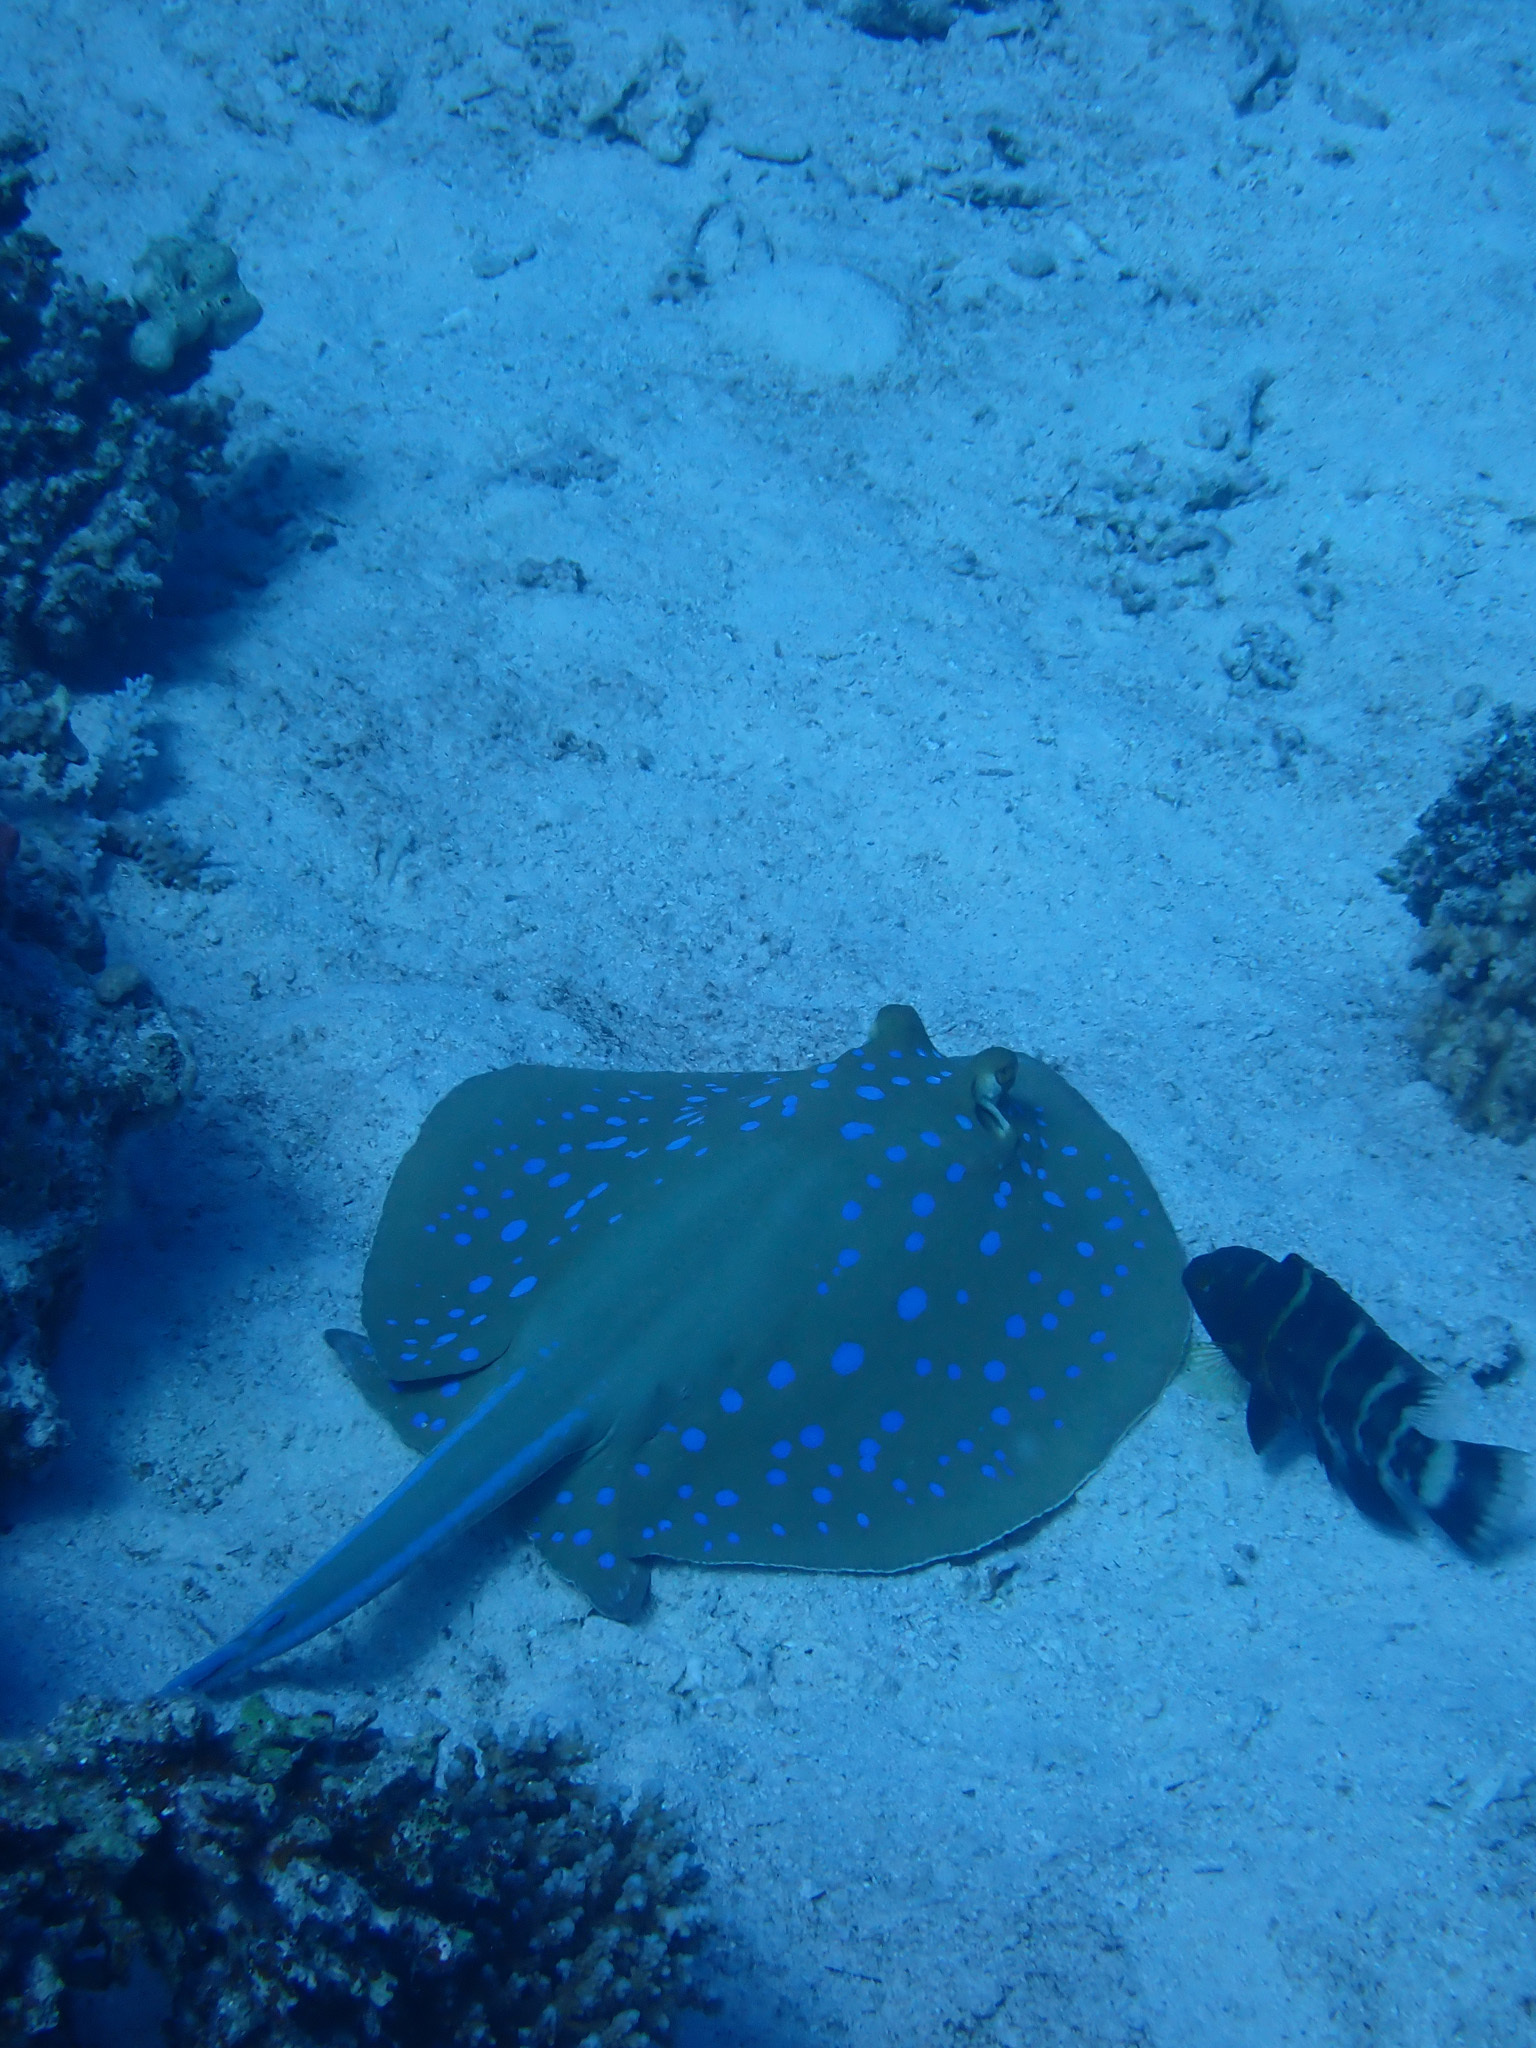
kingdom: Animalia
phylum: Chordata
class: Elasmobranchii
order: Myliobatiformes
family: Dasyatidae
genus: Taeniura
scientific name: Taeniura lymma
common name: Bluespotted ribbontail ray
